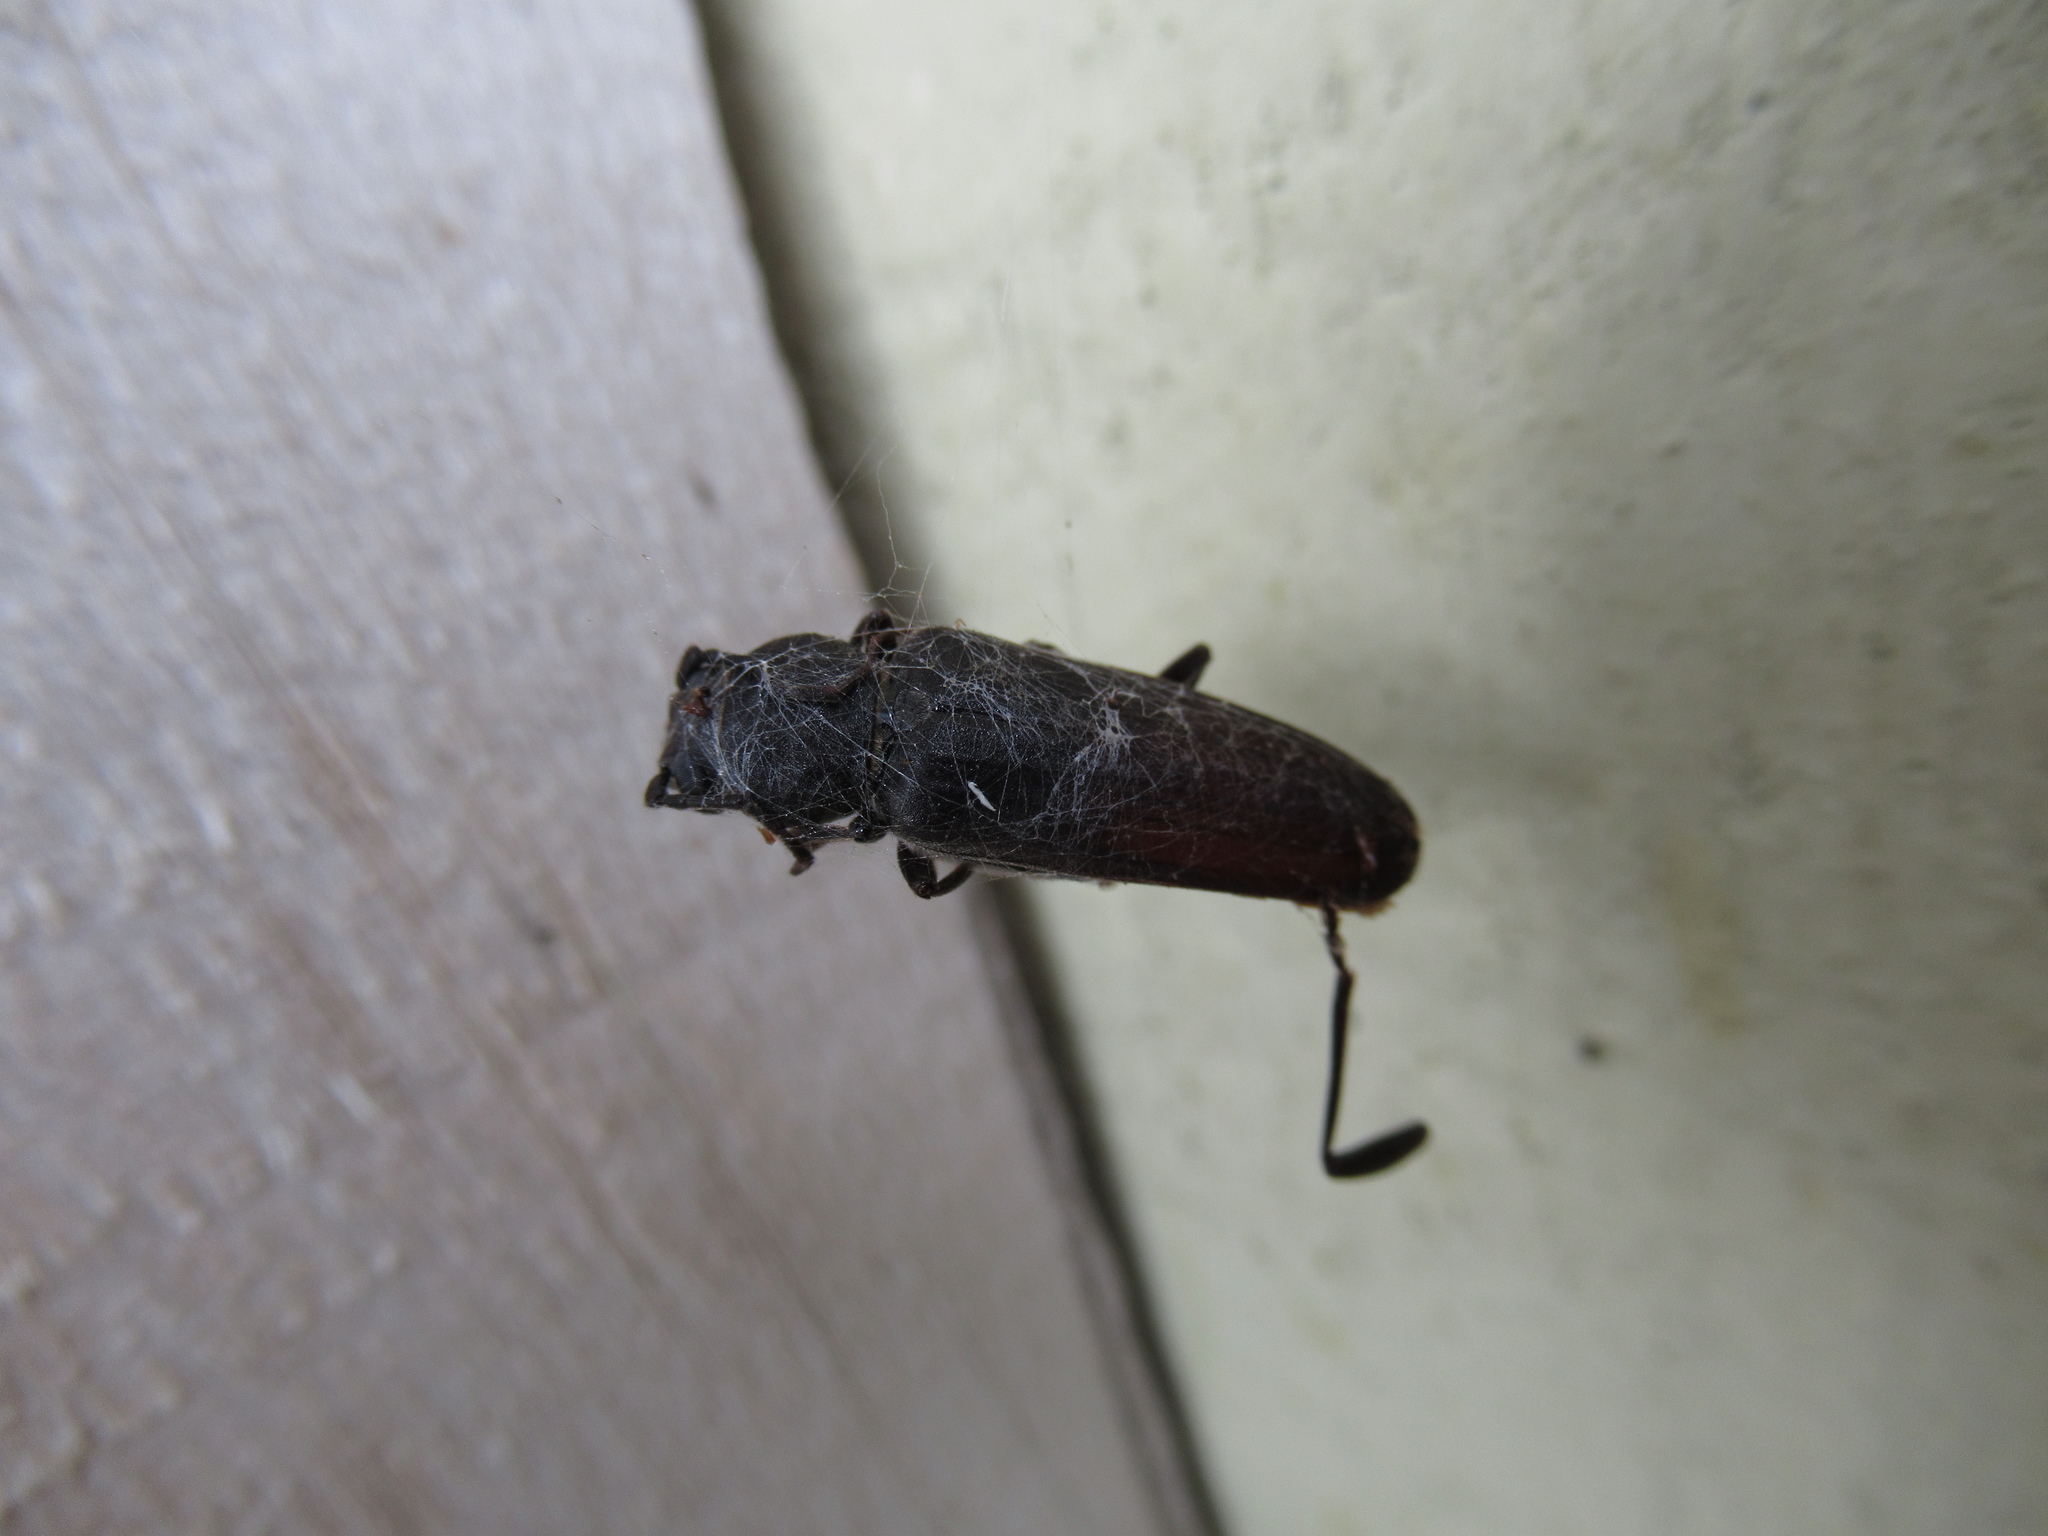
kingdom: Animalia
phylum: Arthropoda
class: Insecta
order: Coleoptera
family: Cerambycidae
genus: Arhopalus
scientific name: Arhopalus ferus
